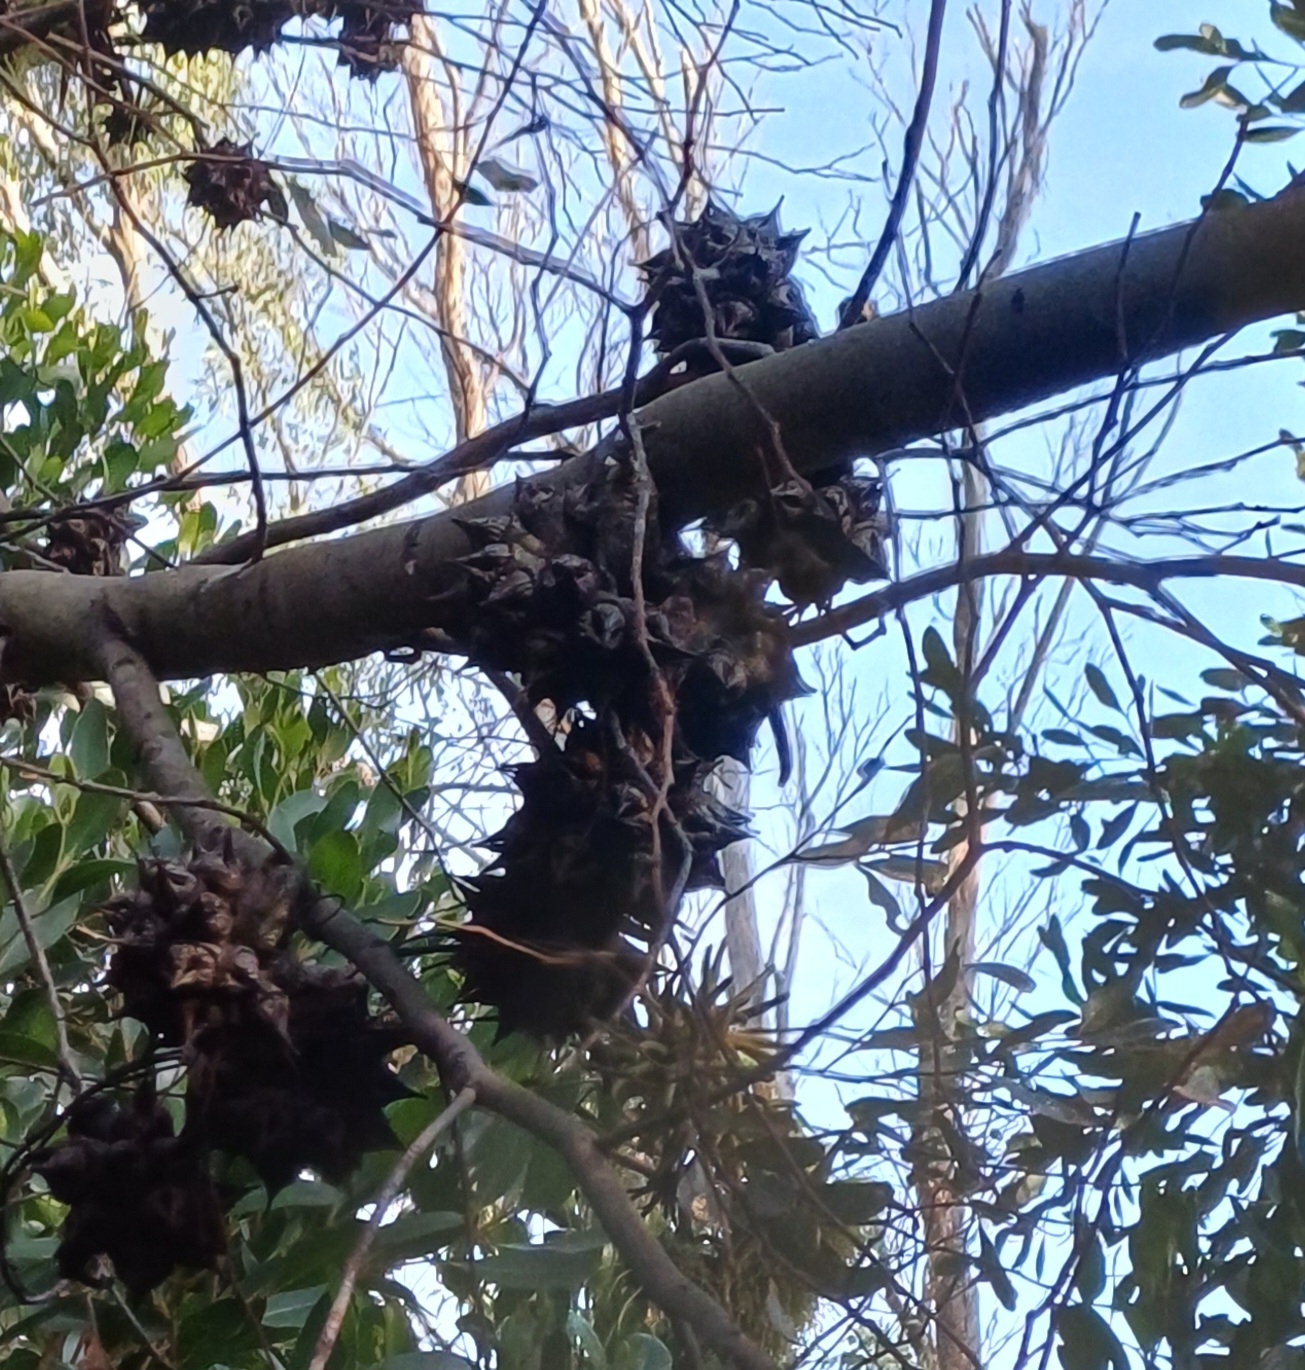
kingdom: Plantae
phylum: Tracheophyta
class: Magnoliopsida
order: Myrtales
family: Myrtaceae
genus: Eucalyptus
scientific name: Eucalyptus conferruminata
